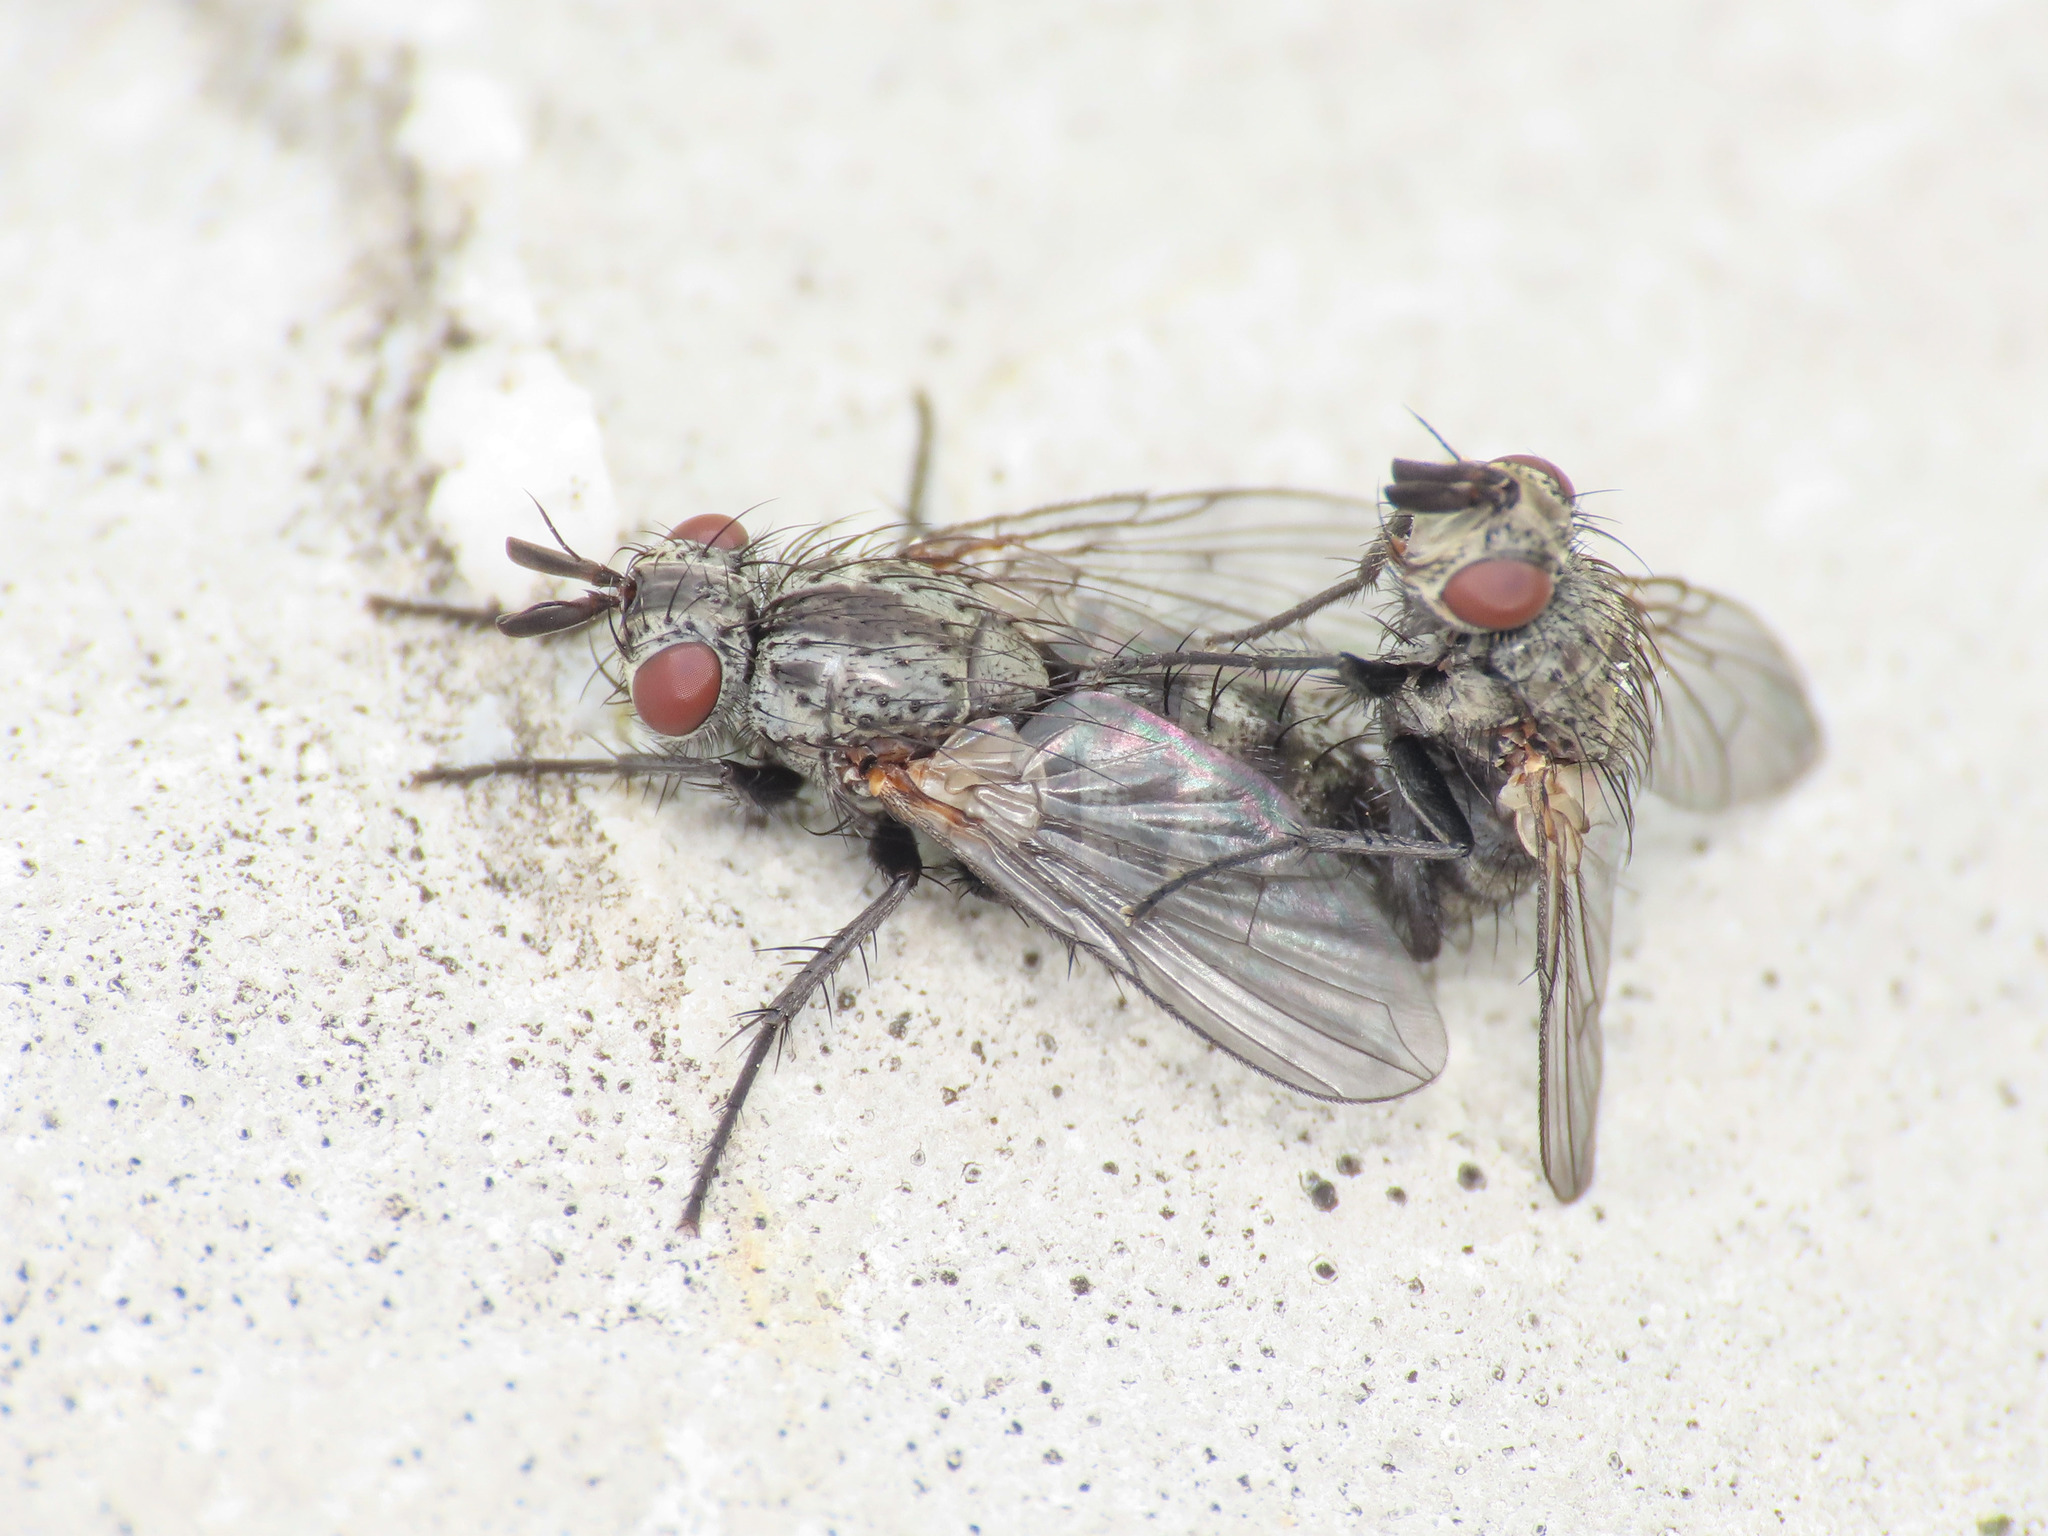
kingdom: Animalia
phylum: Arthropoda
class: Insecta
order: Diptera
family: Tachinidae
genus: Triarthria
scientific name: Triarthria setipennis
